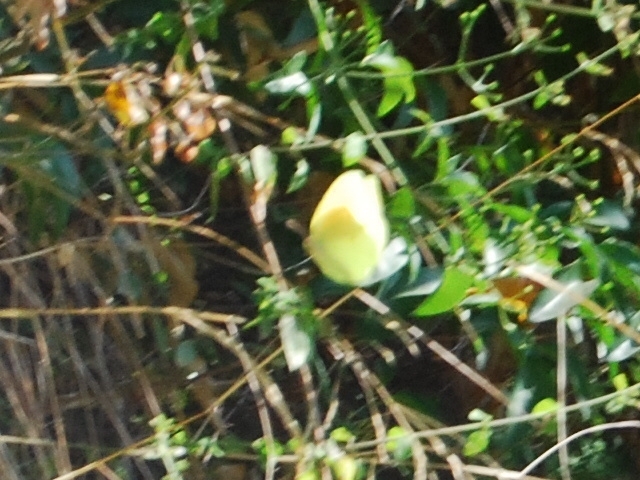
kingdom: Animalia
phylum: Arthropoda
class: Insecta
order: Lepidoptera
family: Pieridae
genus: Gonepteryx
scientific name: Gonepteryx cleopatra
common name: Cleopatra
